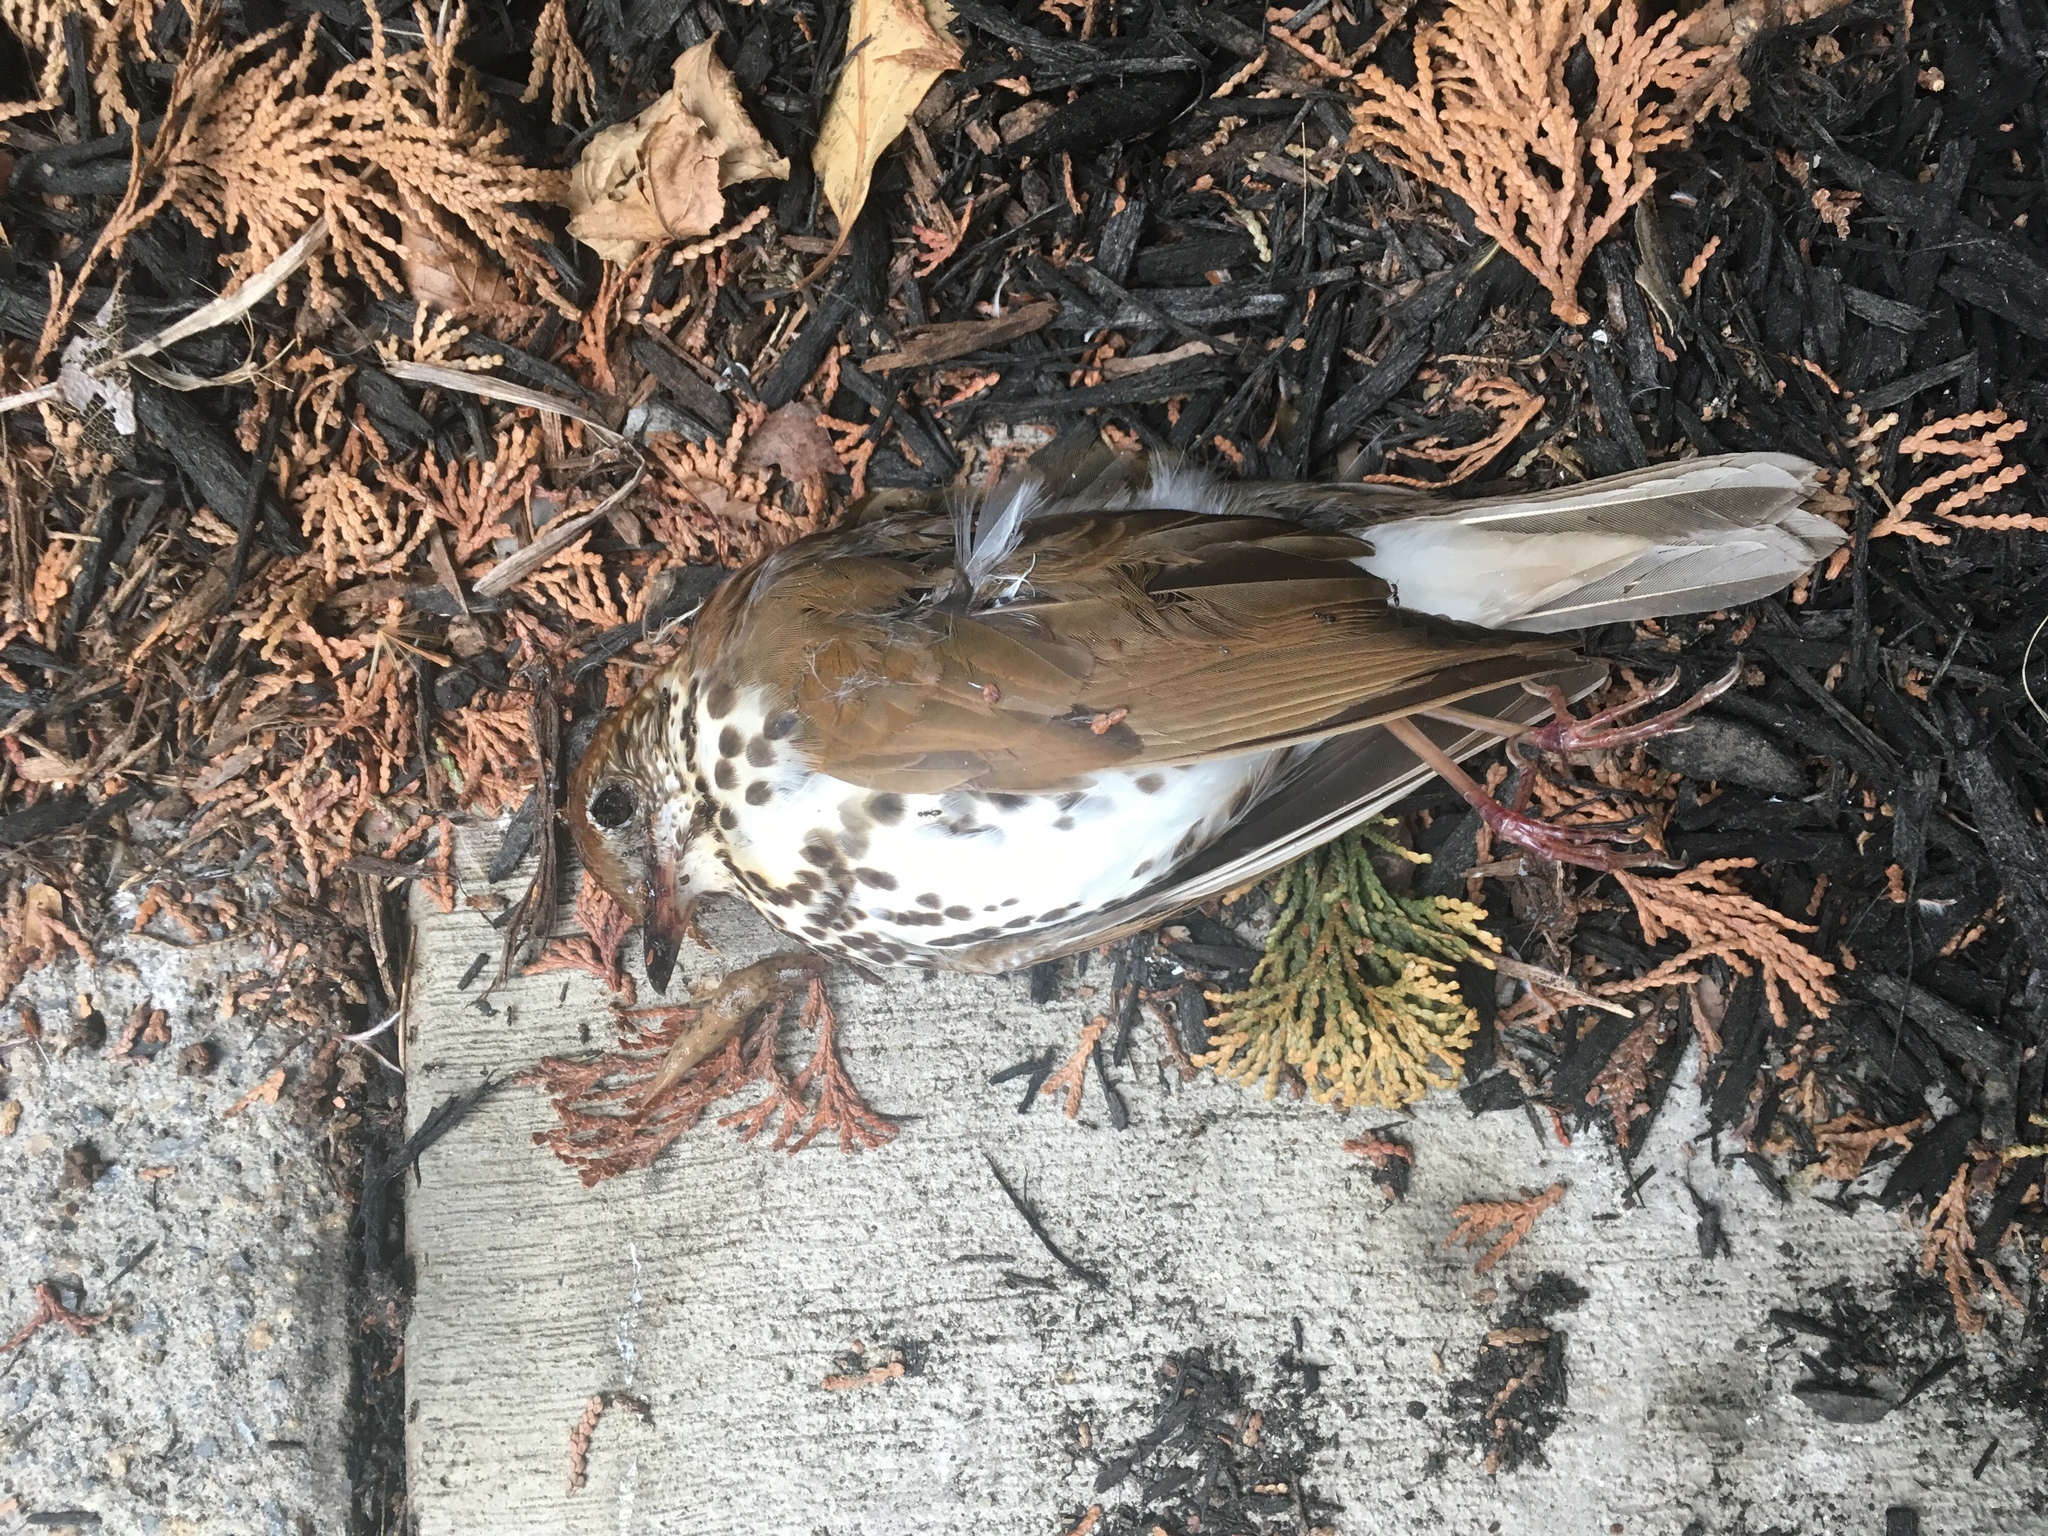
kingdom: Animalia
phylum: Chordata
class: Aves
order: Passeriformes
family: Turdidae
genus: Hylocichla
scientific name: Hylocichla mustelina
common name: Wood thrush
